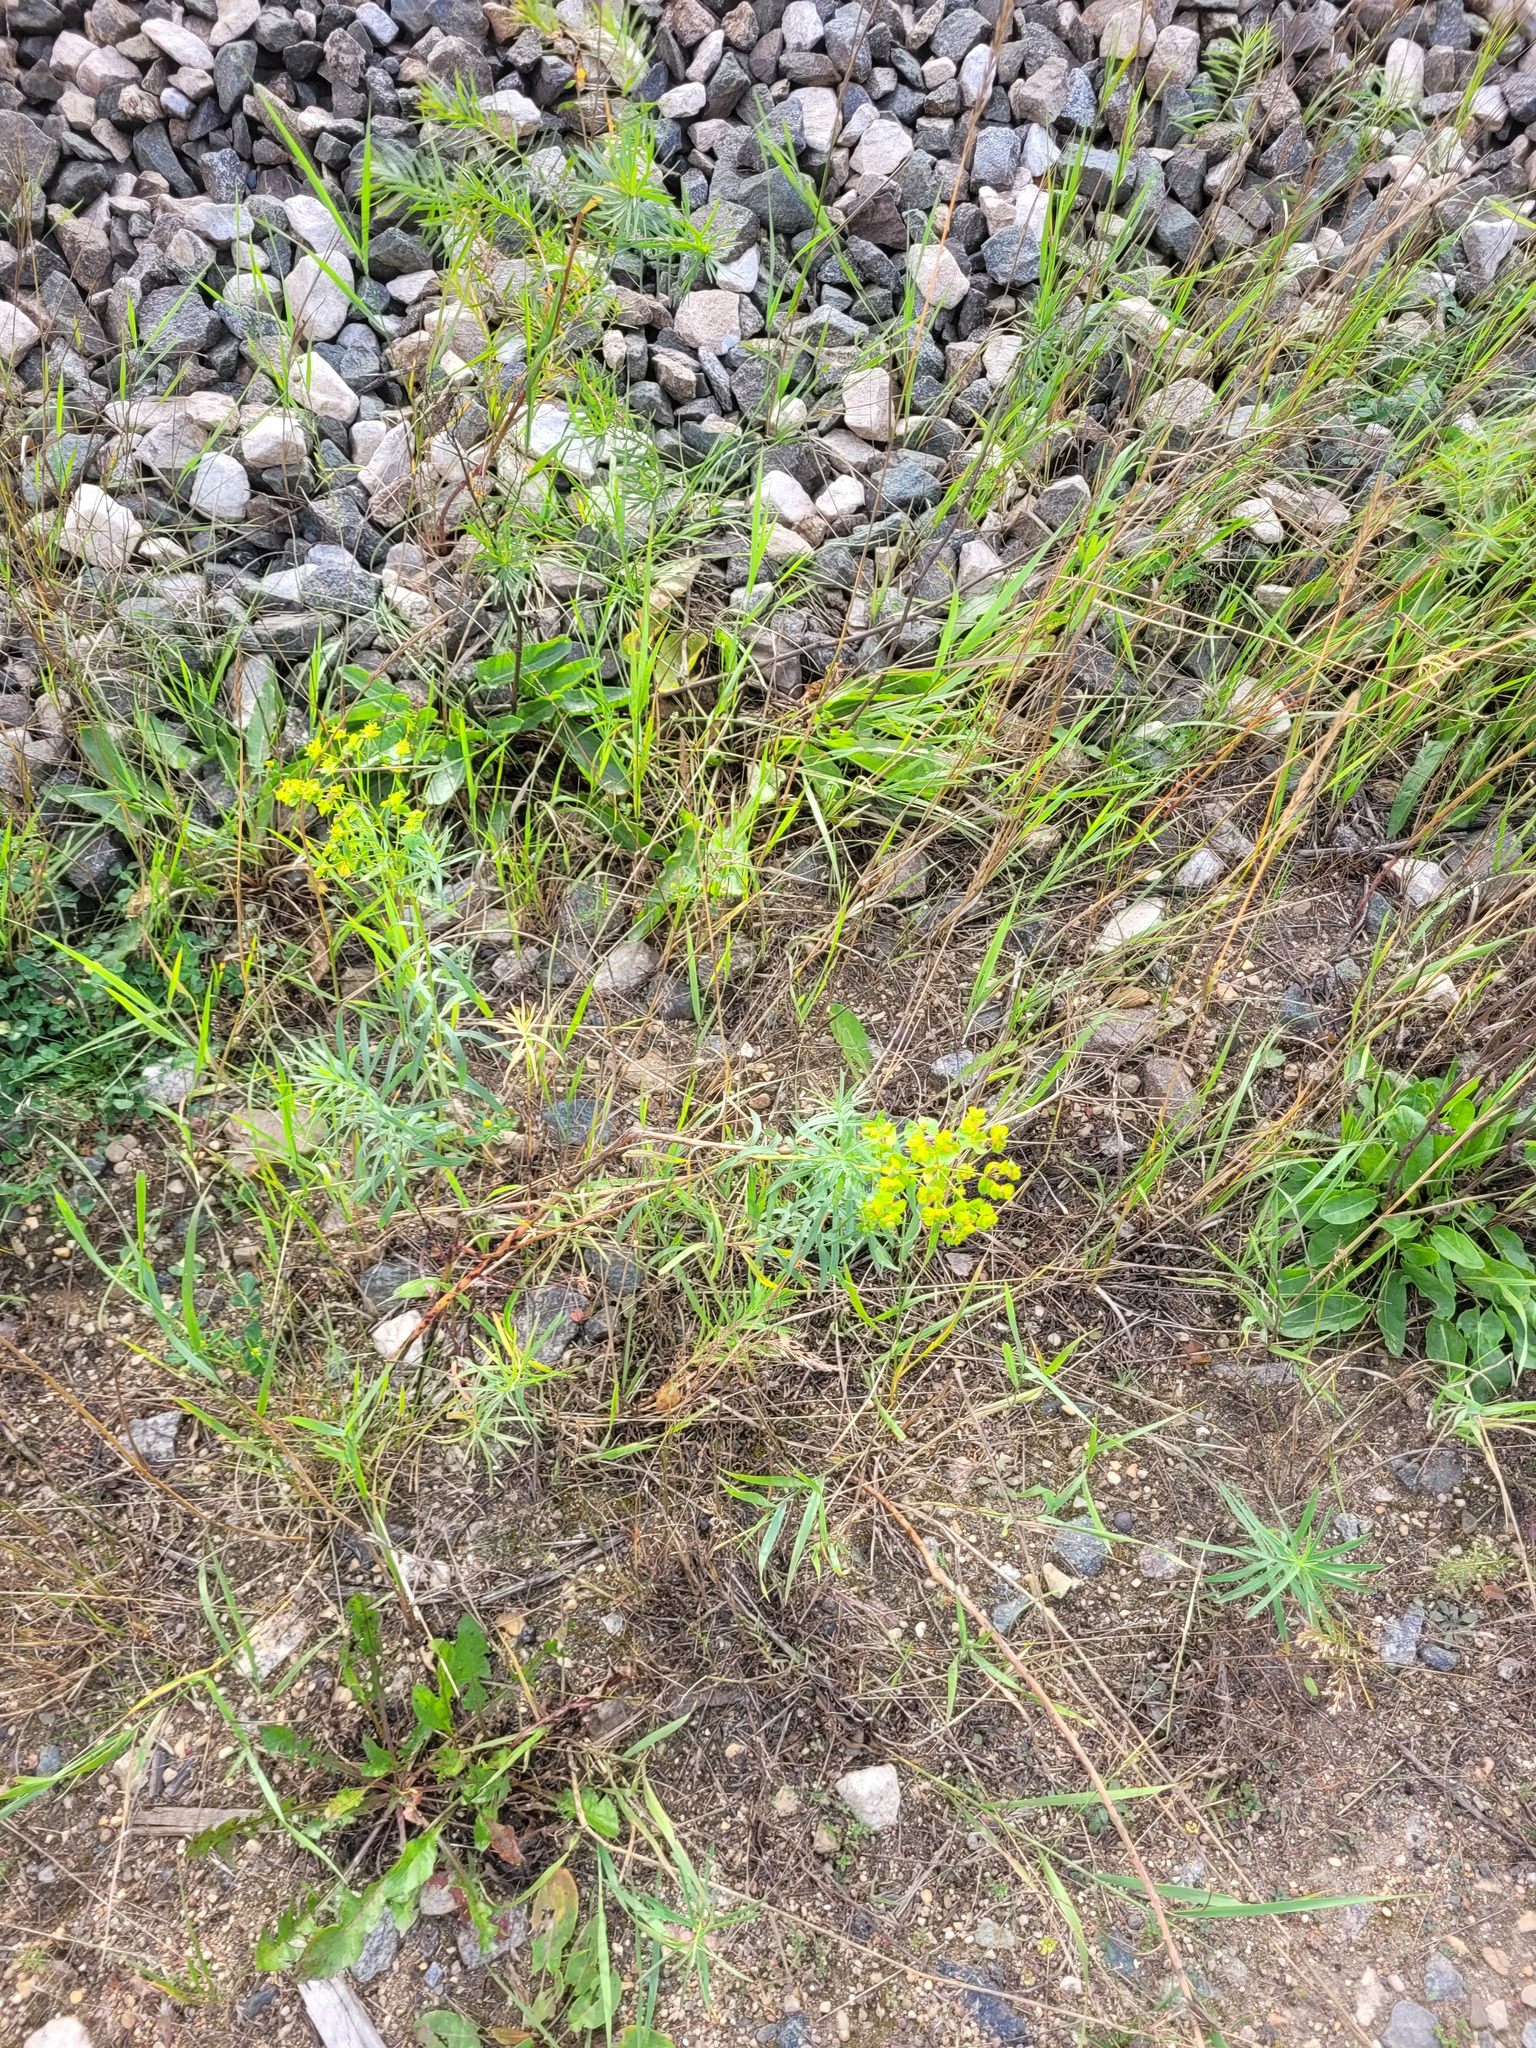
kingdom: Plantae
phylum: Tracheophyta
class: Magnoliopsida
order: Malpighiales
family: Euphorbiaceae
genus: Euphorbia
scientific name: Euphorbia virgata
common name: Leafy spurge
